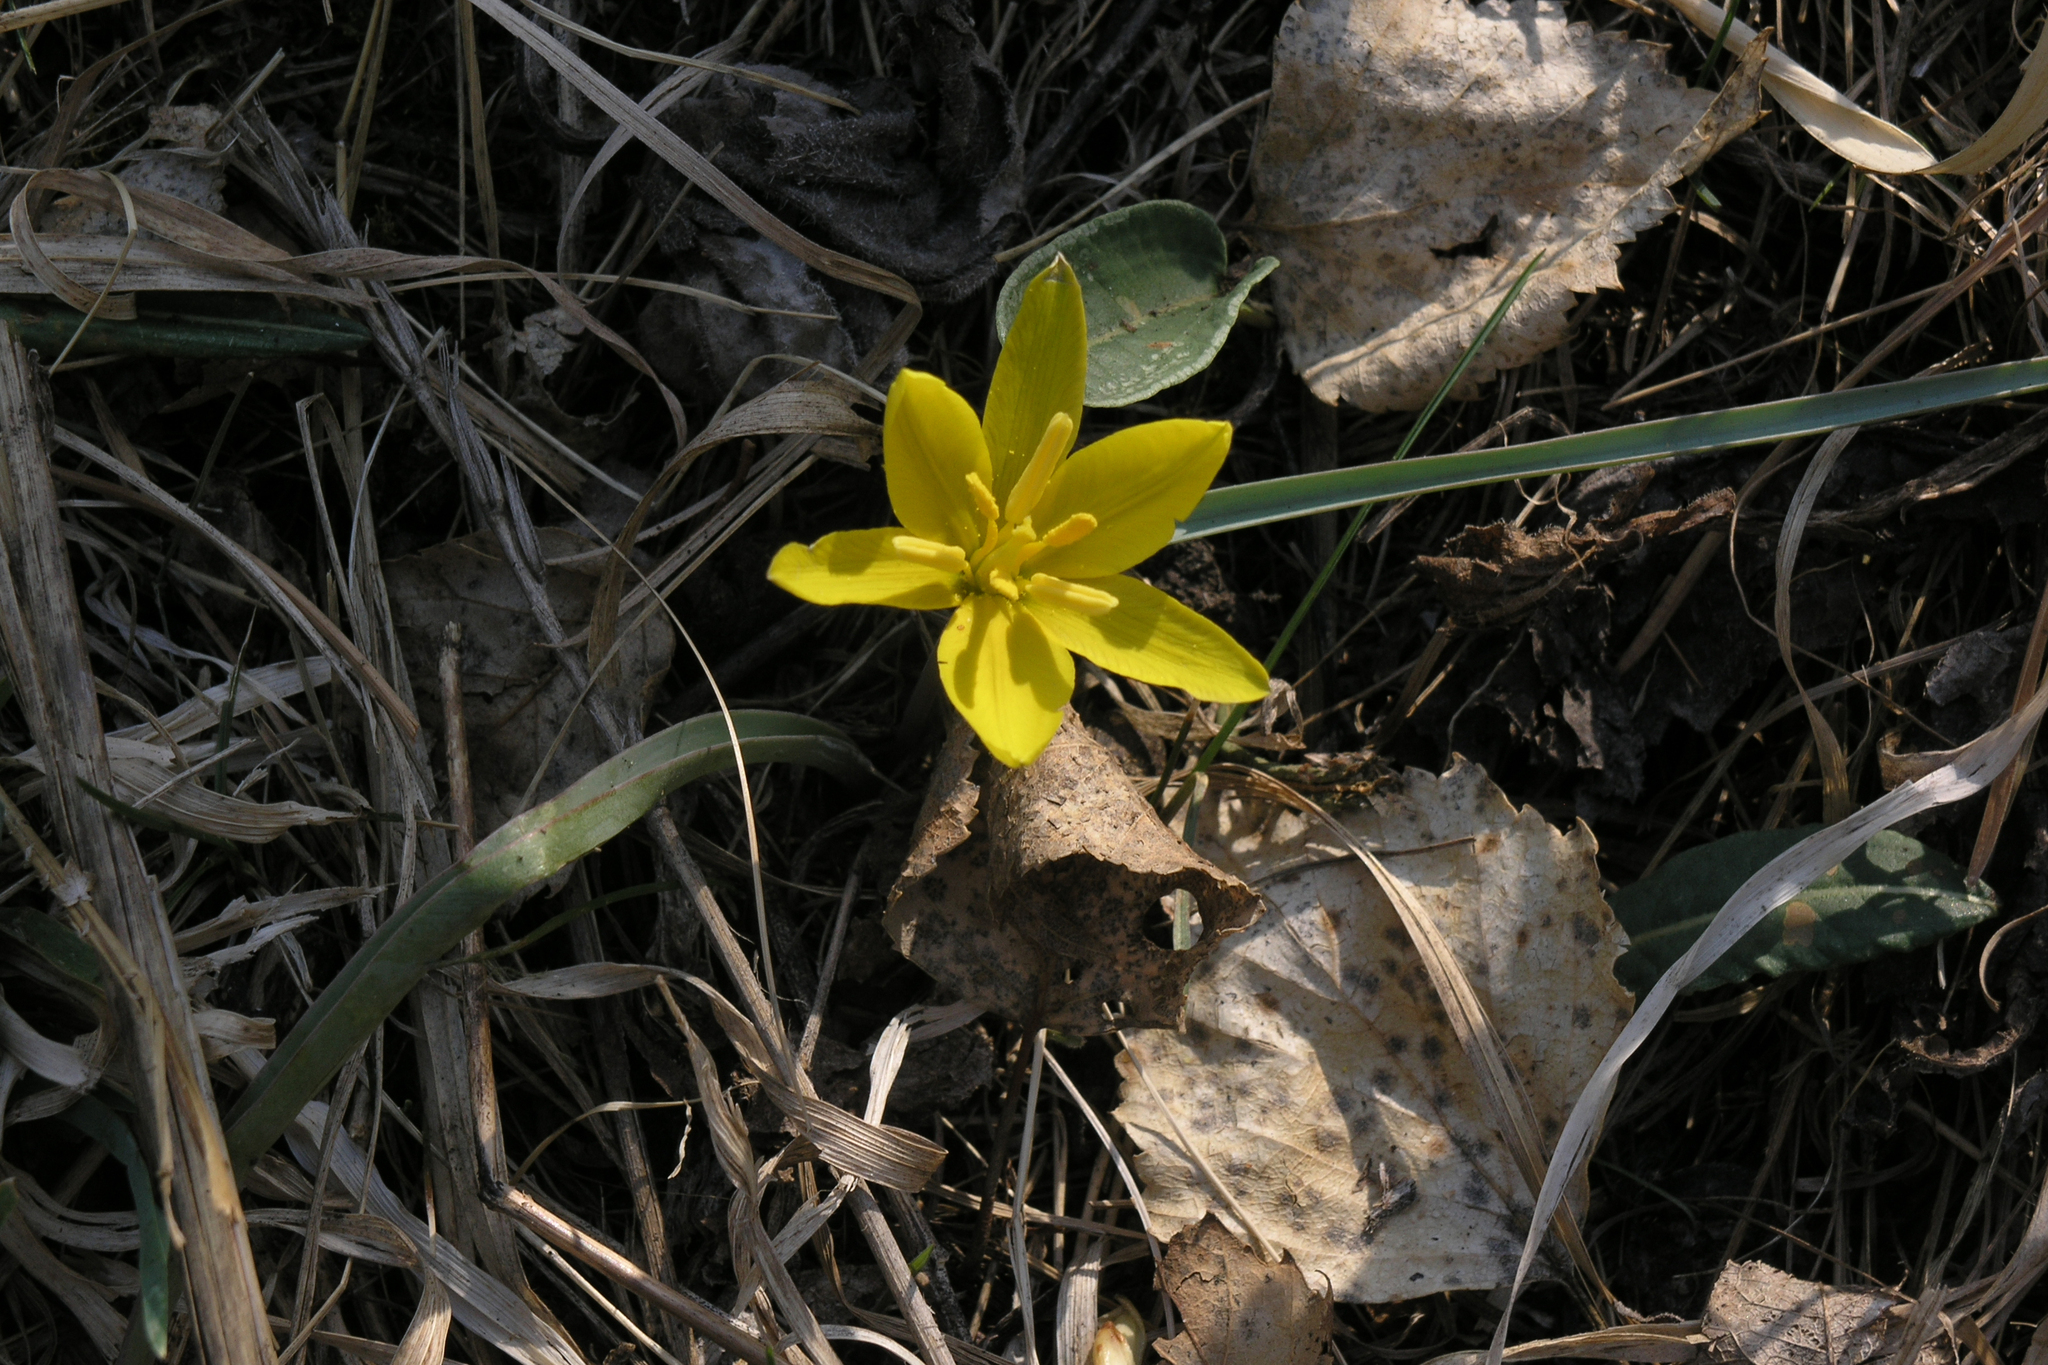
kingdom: Plantae
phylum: Tracheophyta
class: Liliopsida
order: Liliales
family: Liliaceae
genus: Tulipa
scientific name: Tulipa uniflora
